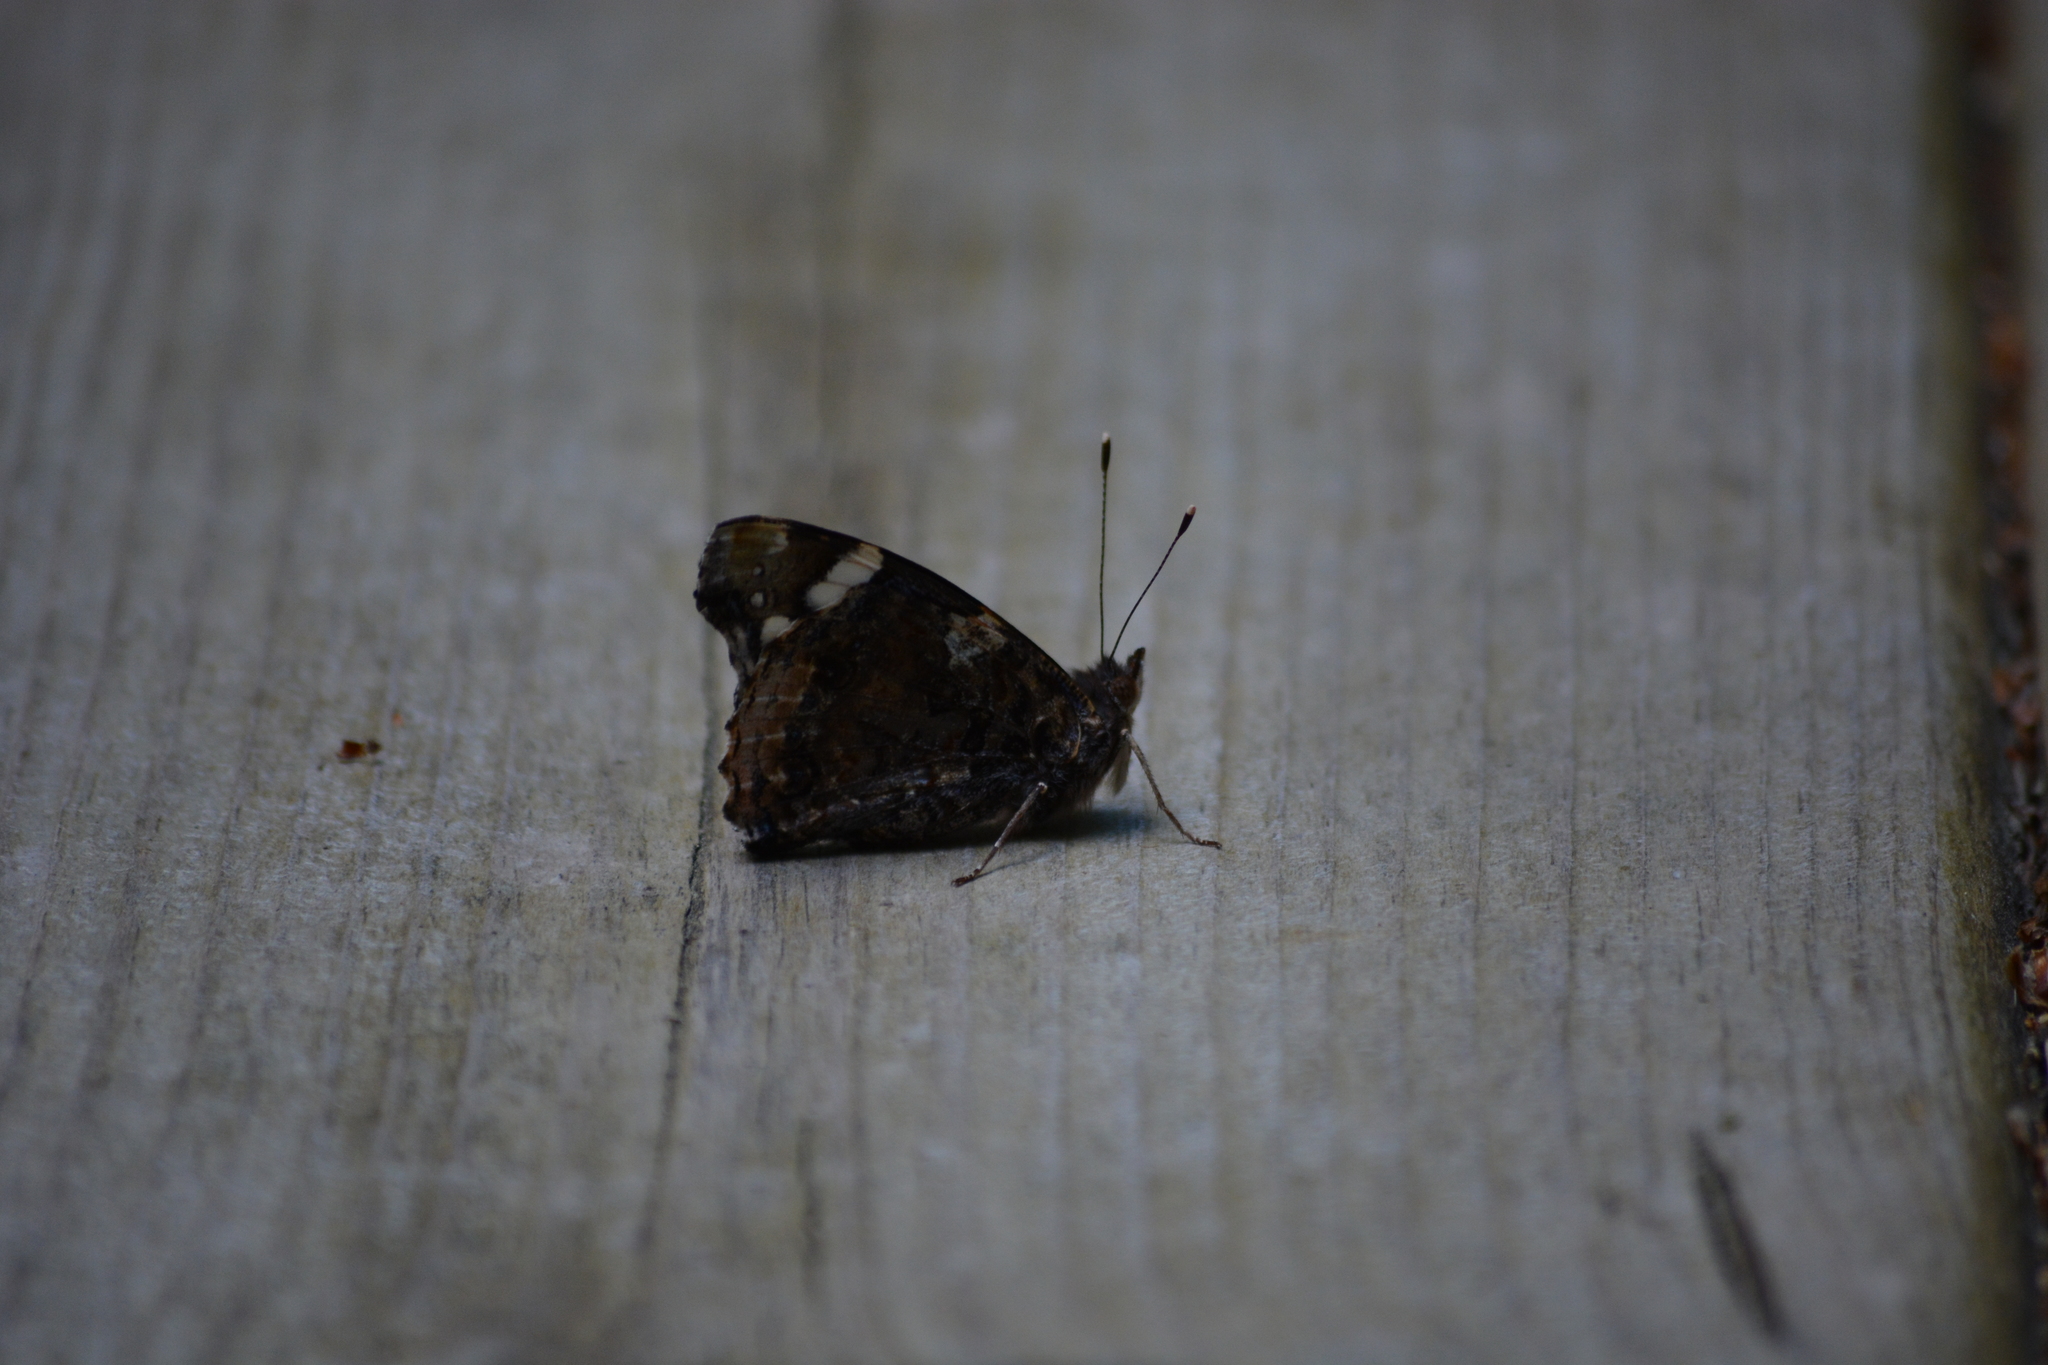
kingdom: Animalia
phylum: Arthropoda
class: Insecta
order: Lepidoptera
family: Nymphalidae
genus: Vanessa
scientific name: Vanessa atalanta
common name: Red admiral
